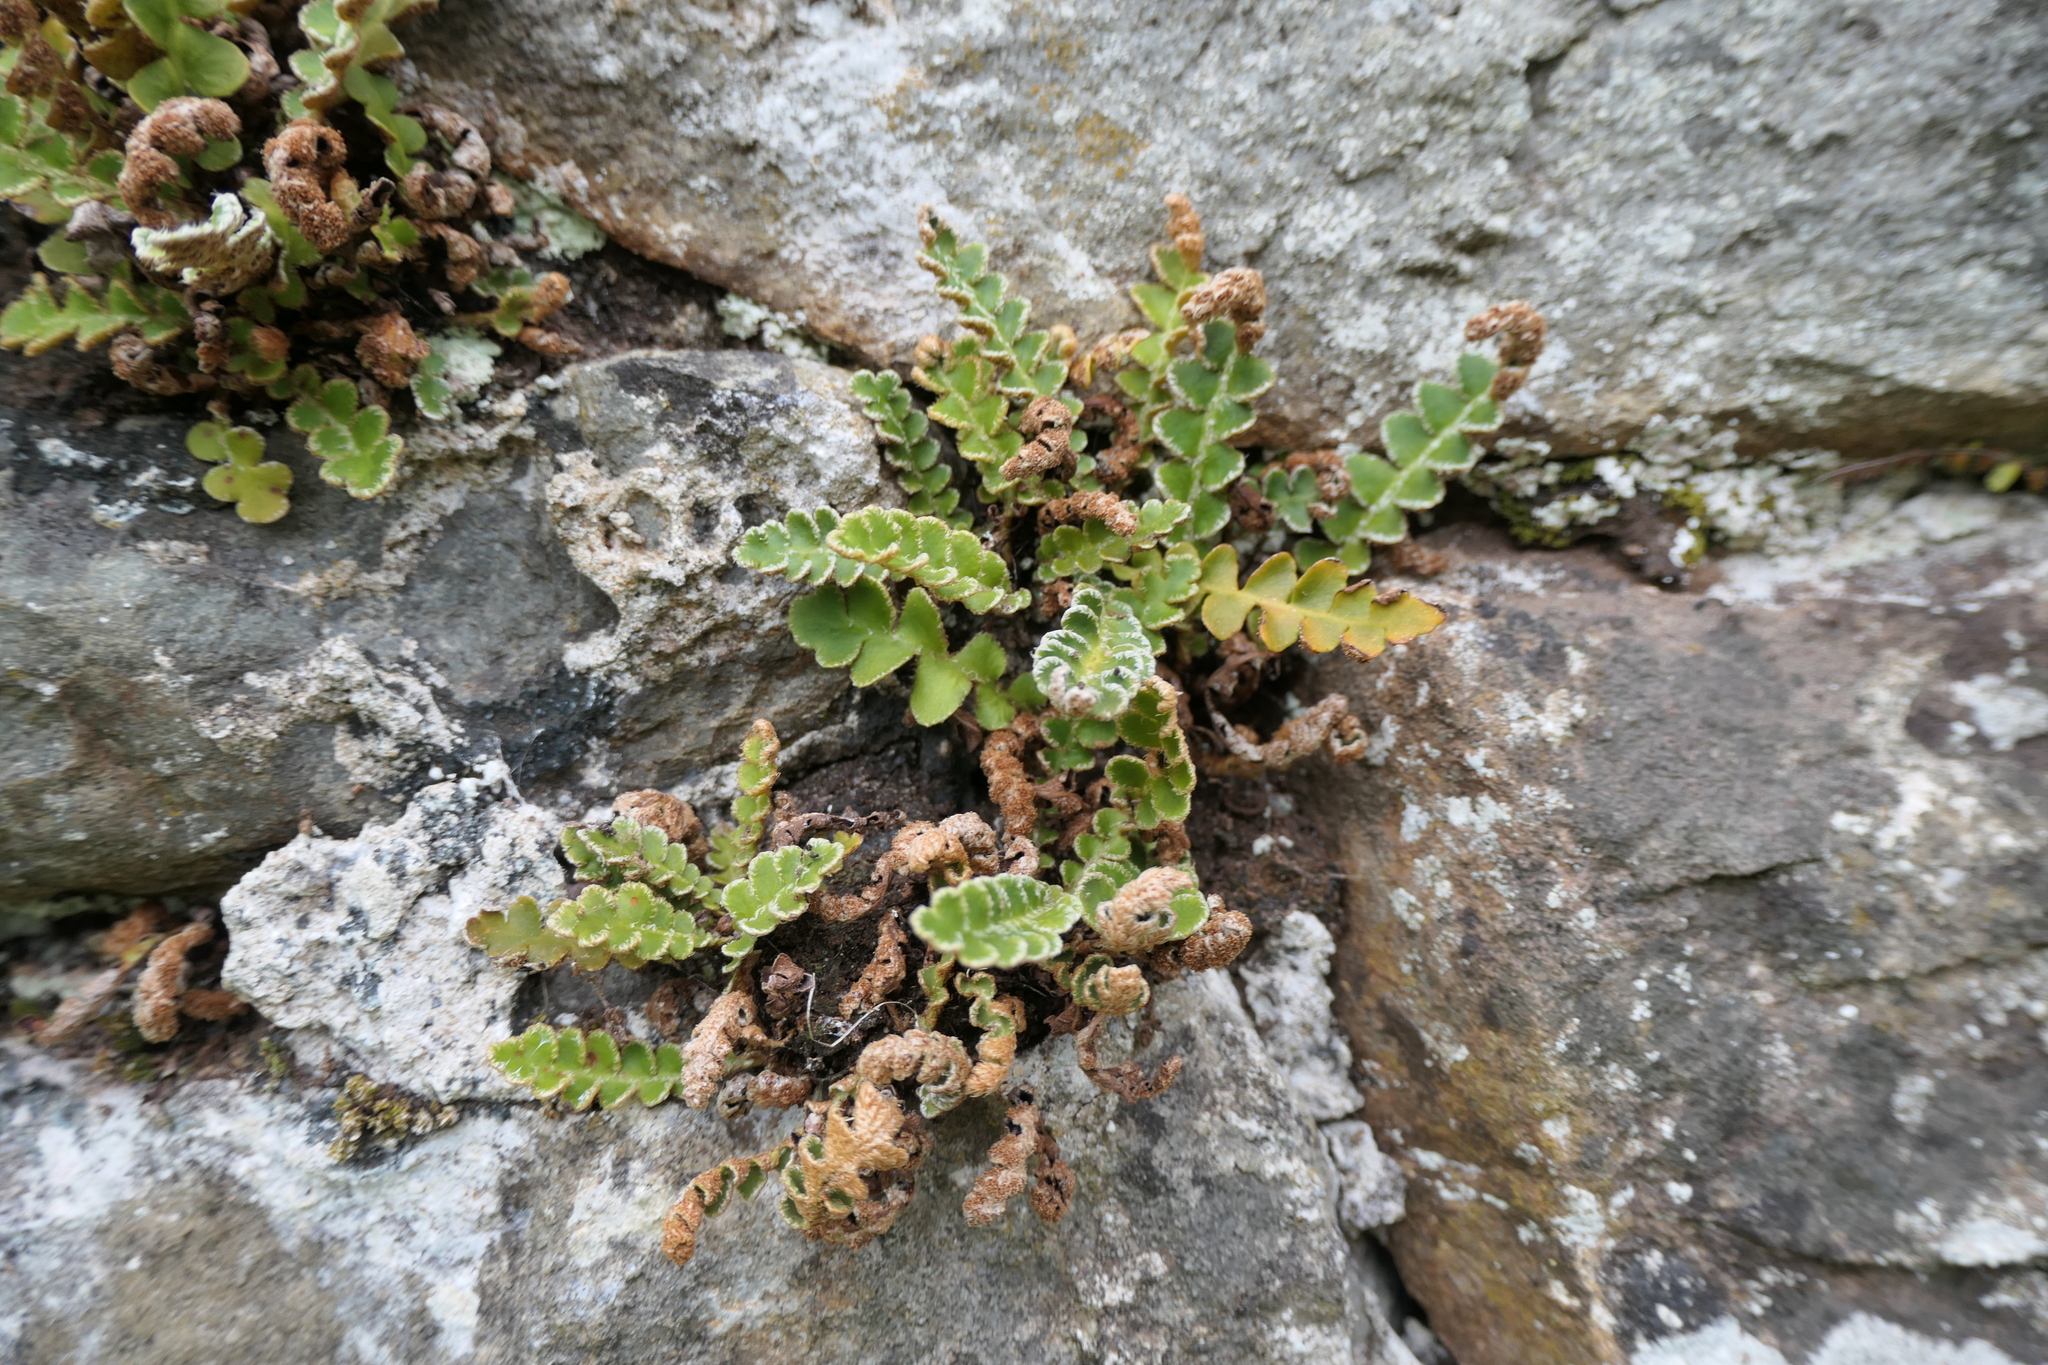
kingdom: Plantae
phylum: Tracheophyta
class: Polypodiopsida
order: Polypodiales
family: Aspleniaceae
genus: Asplenium
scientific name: Asplenium ceterach
